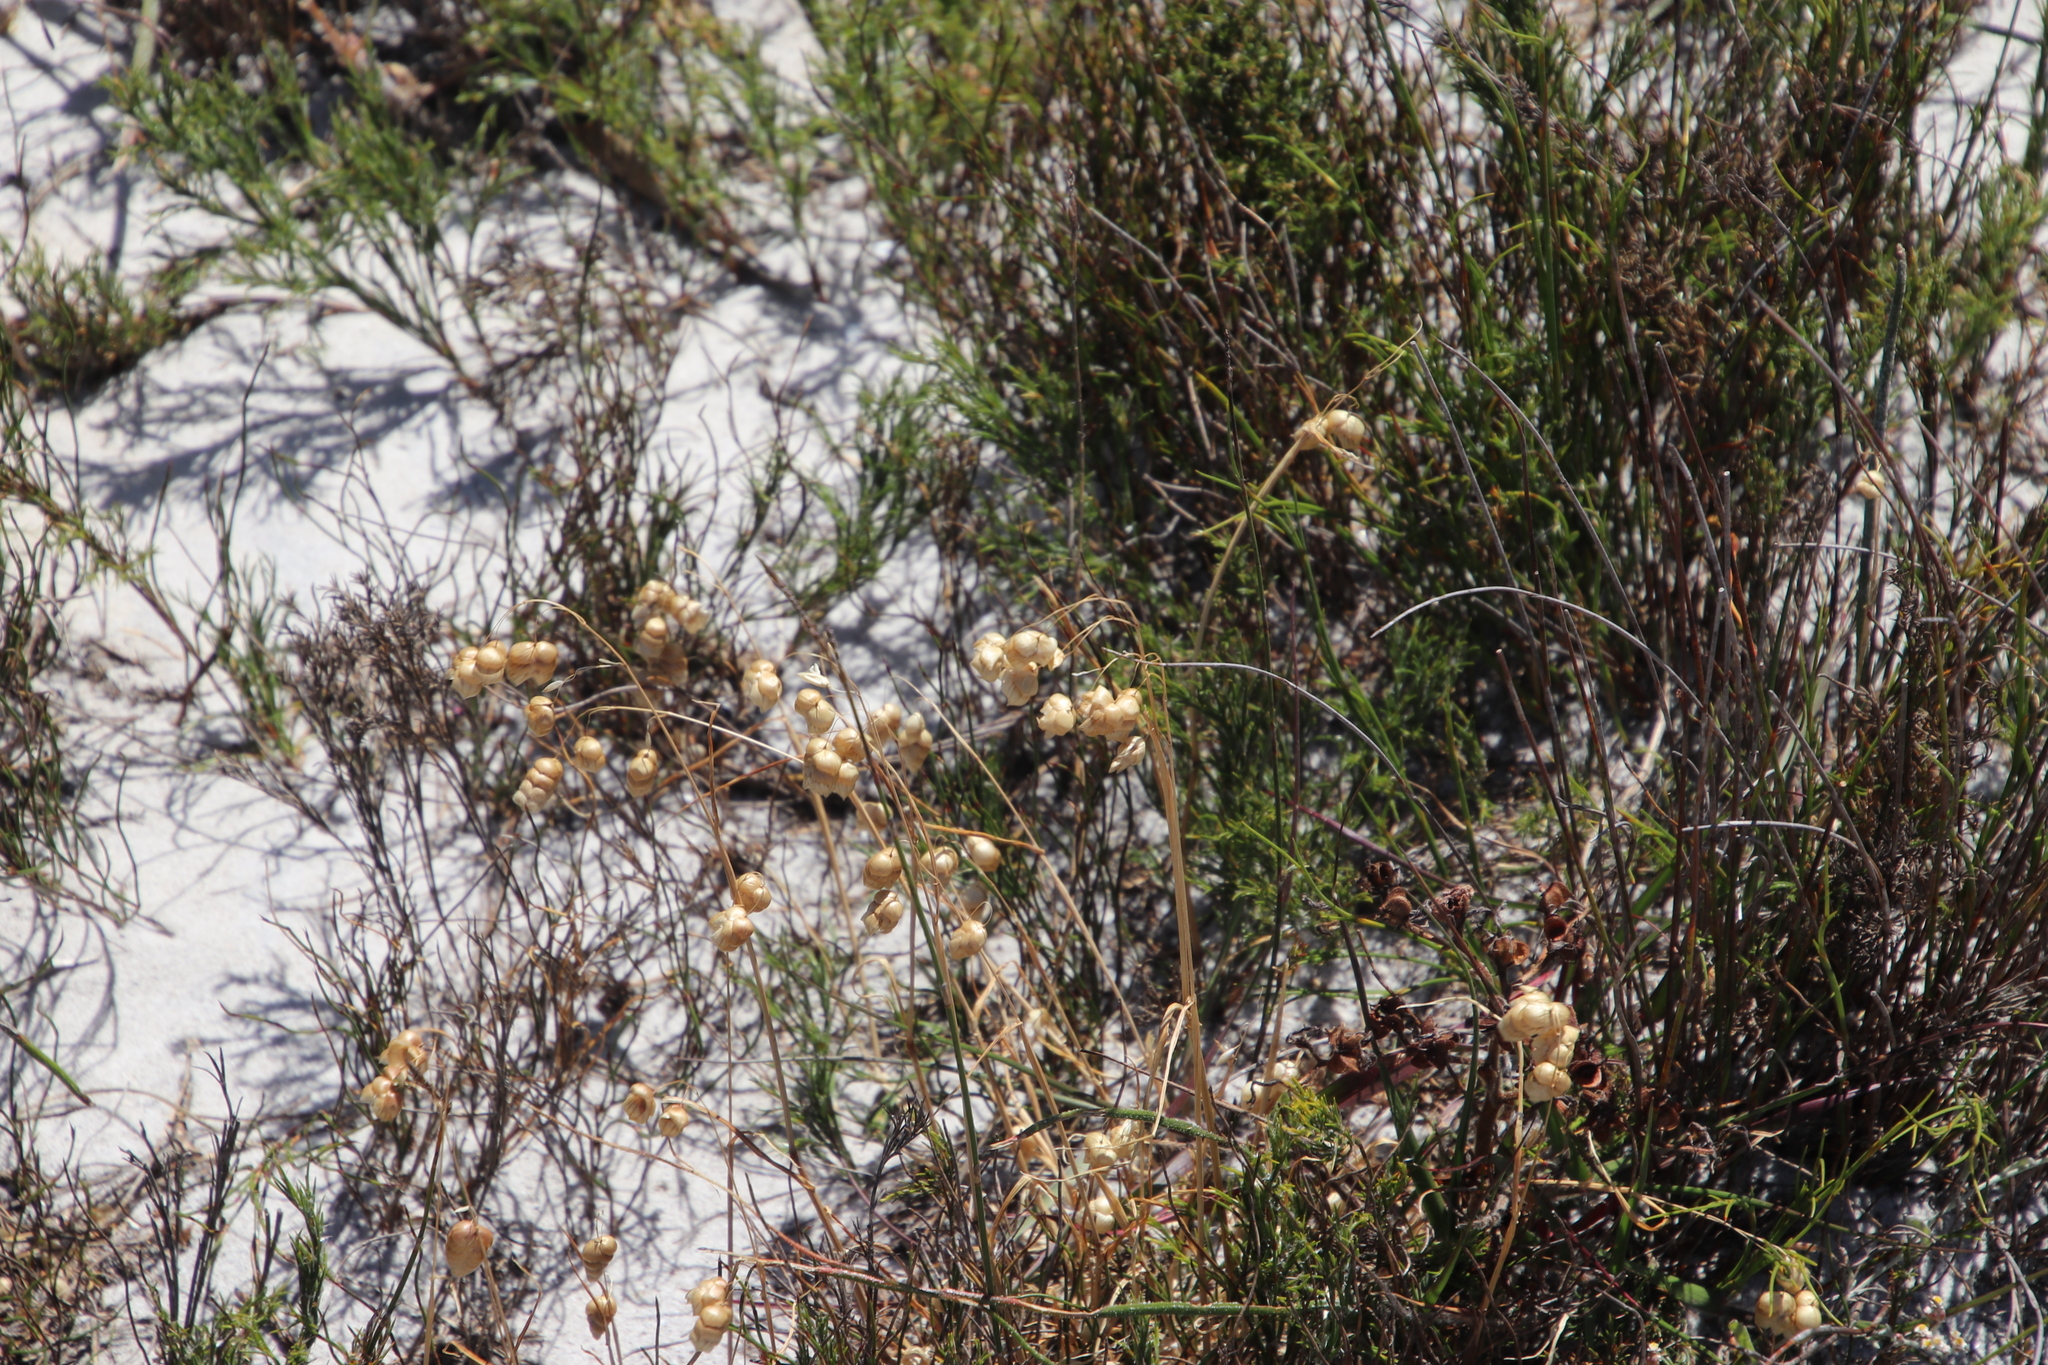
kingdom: Plantae
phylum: Tracheophyta
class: Liliopsida
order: Poales
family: Poaceae
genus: Briza
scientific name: Briza maxima
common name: Big quakinggrass
